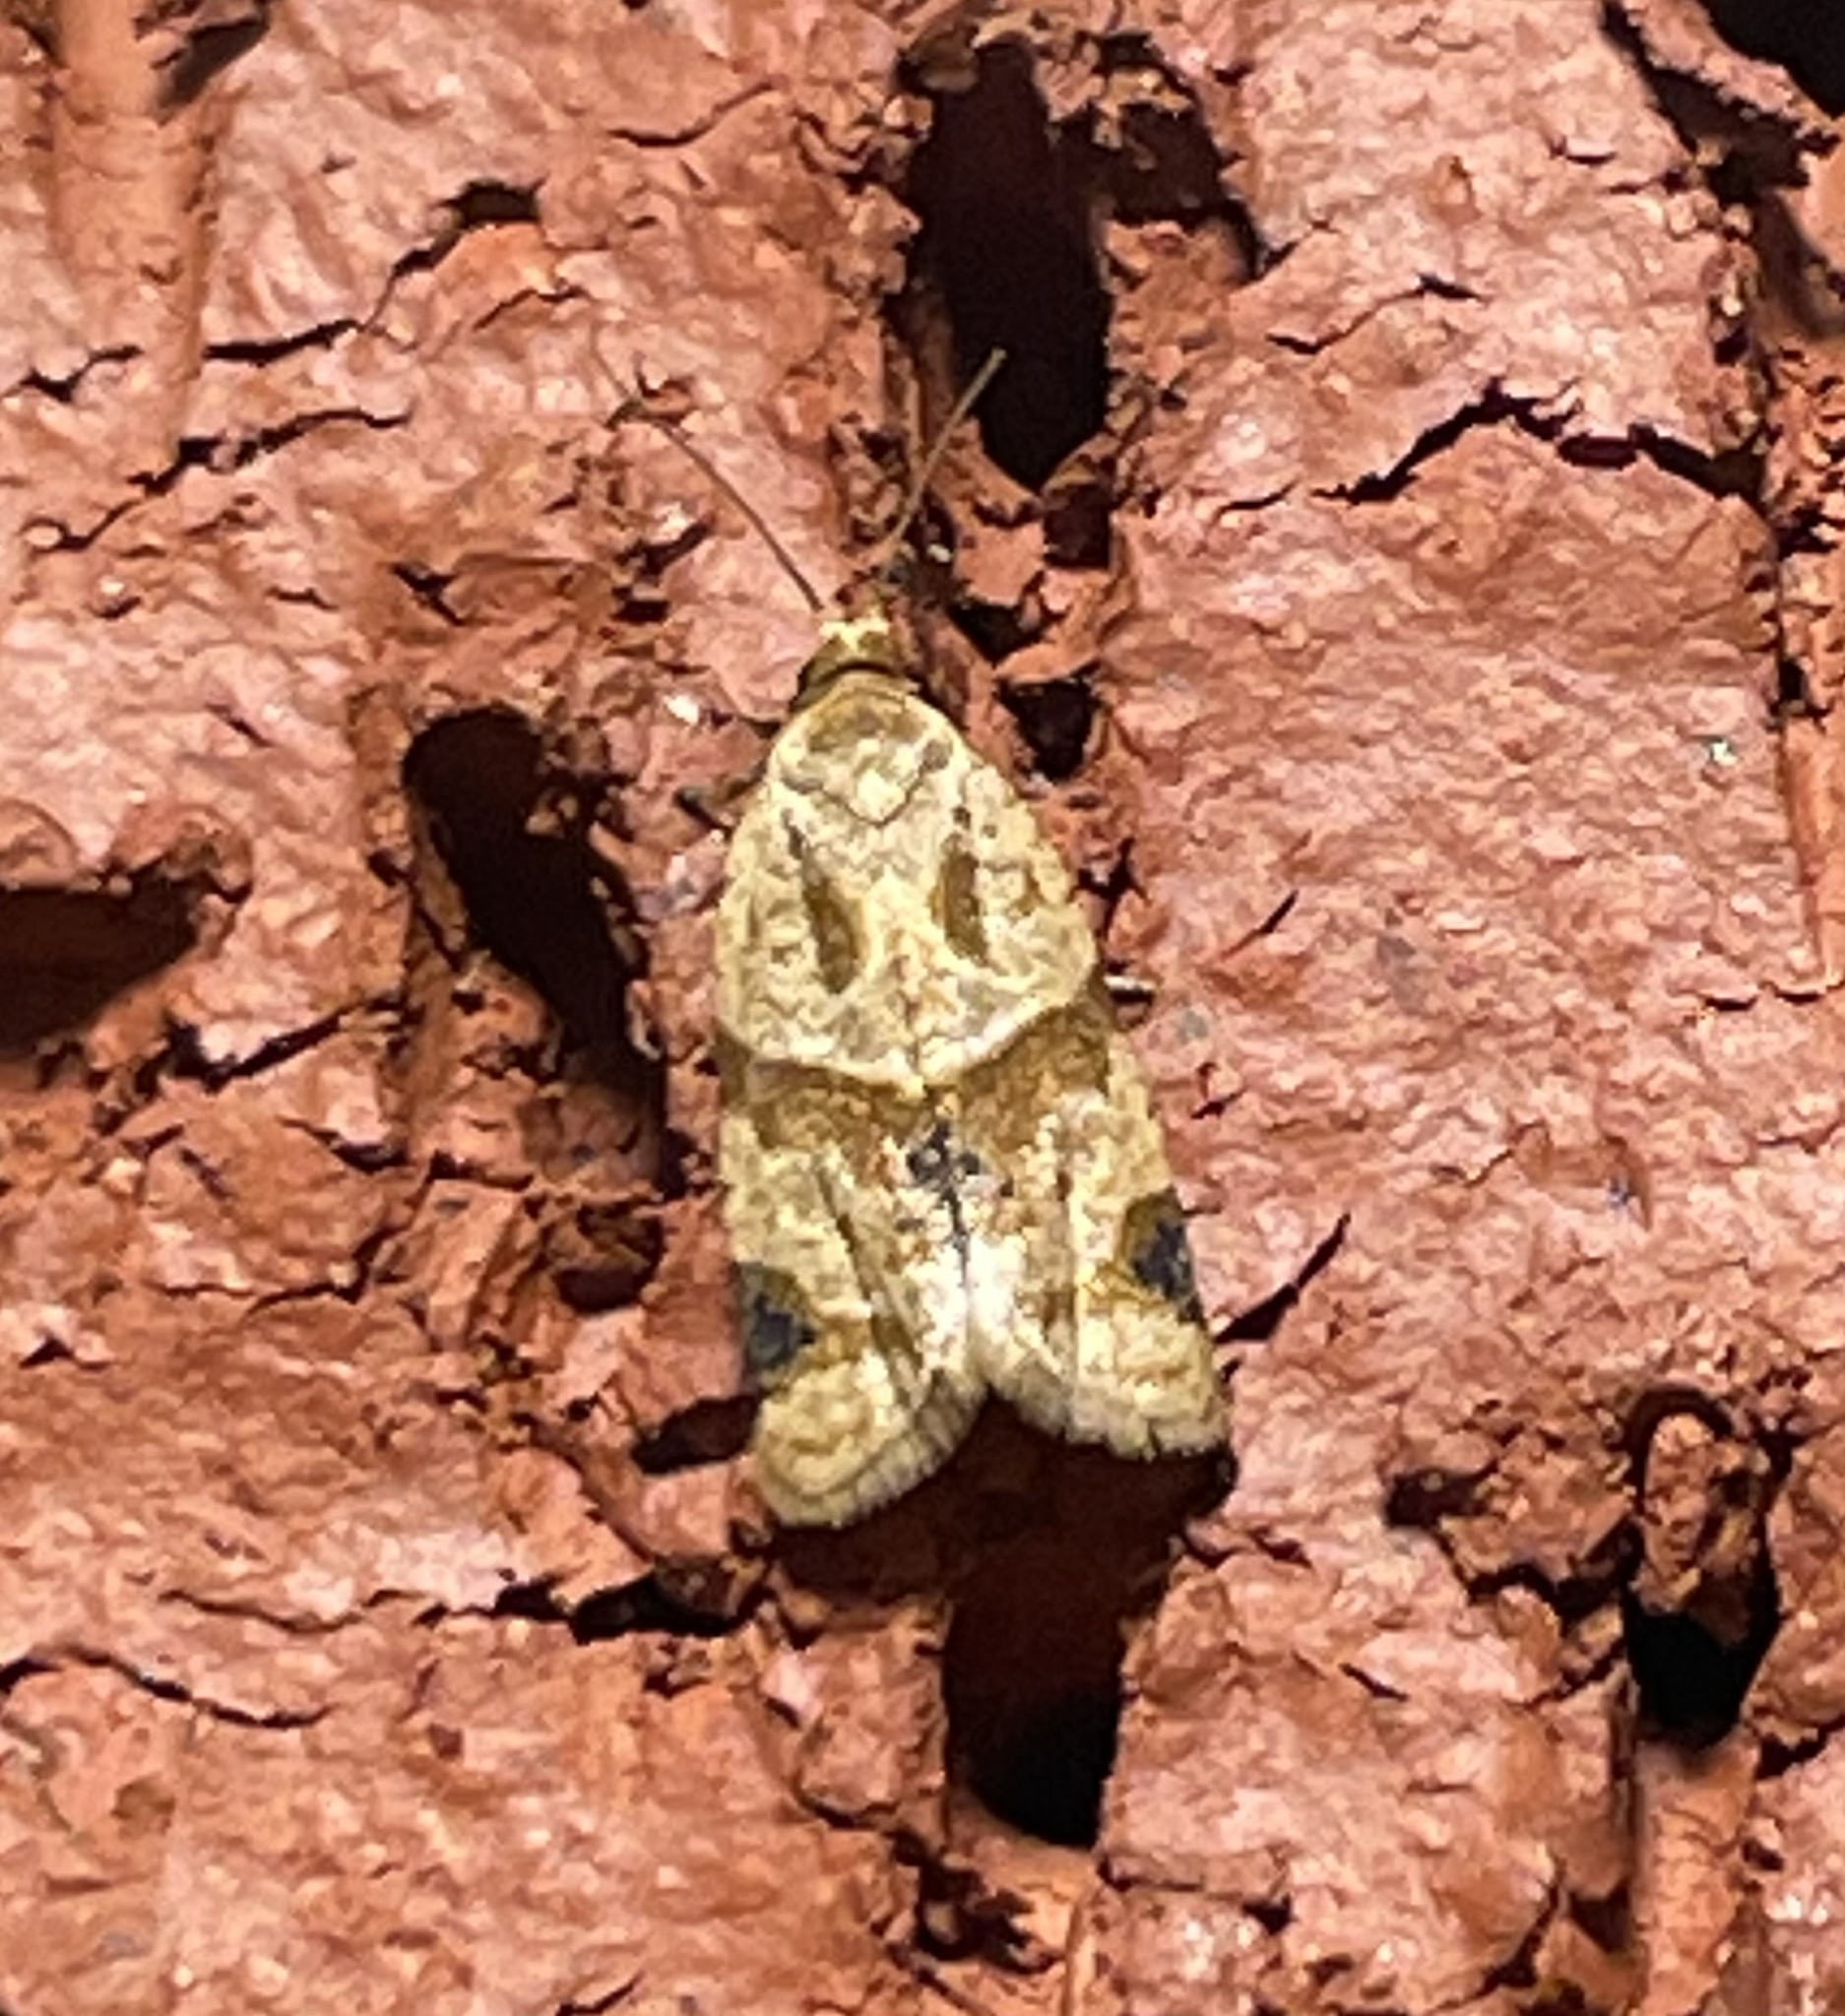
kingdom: Animalia
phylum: Arthropoda
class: Insecta
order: Lepidoptera
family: Tortricidae
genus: Clepsis
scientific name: Clepsis peritana
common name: Garden tortrix
